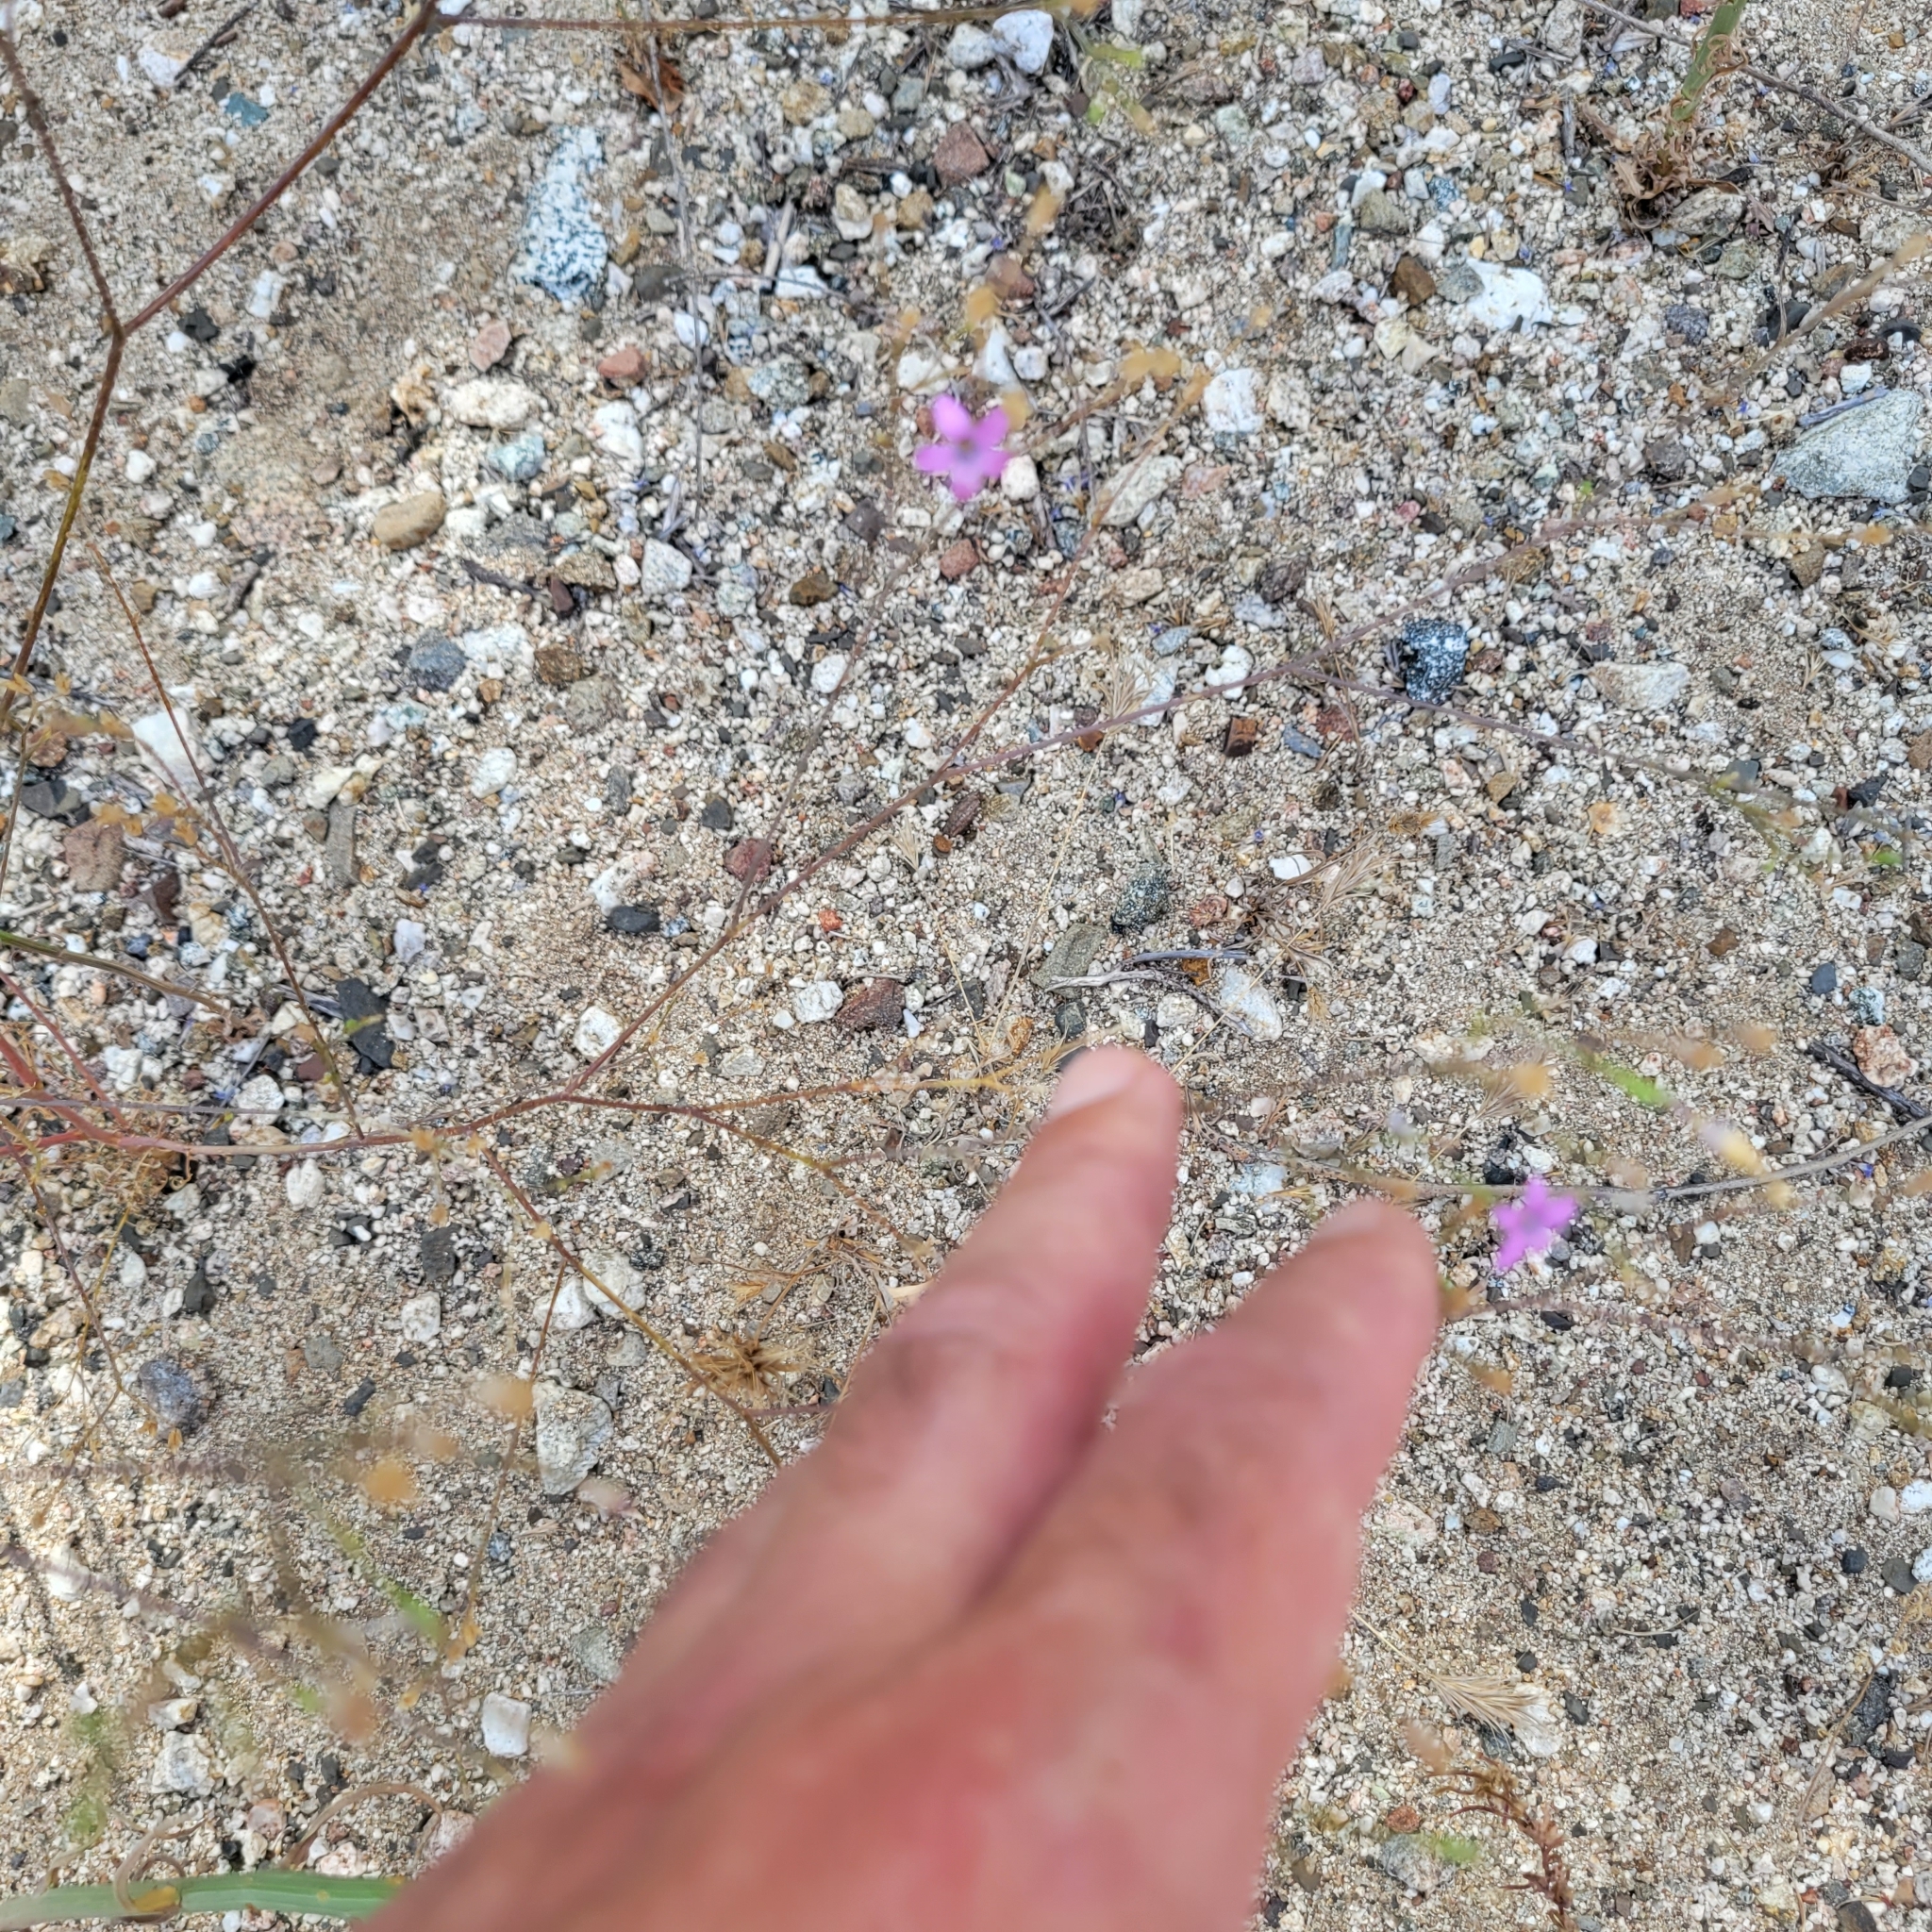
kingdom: Plantae
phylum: Tracheophyta
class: Magnoliopsida
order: Ericales
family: Polemoniaceae
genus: Saltugilia
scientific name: Saltugilia splendens
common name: Grinnell's gilia
